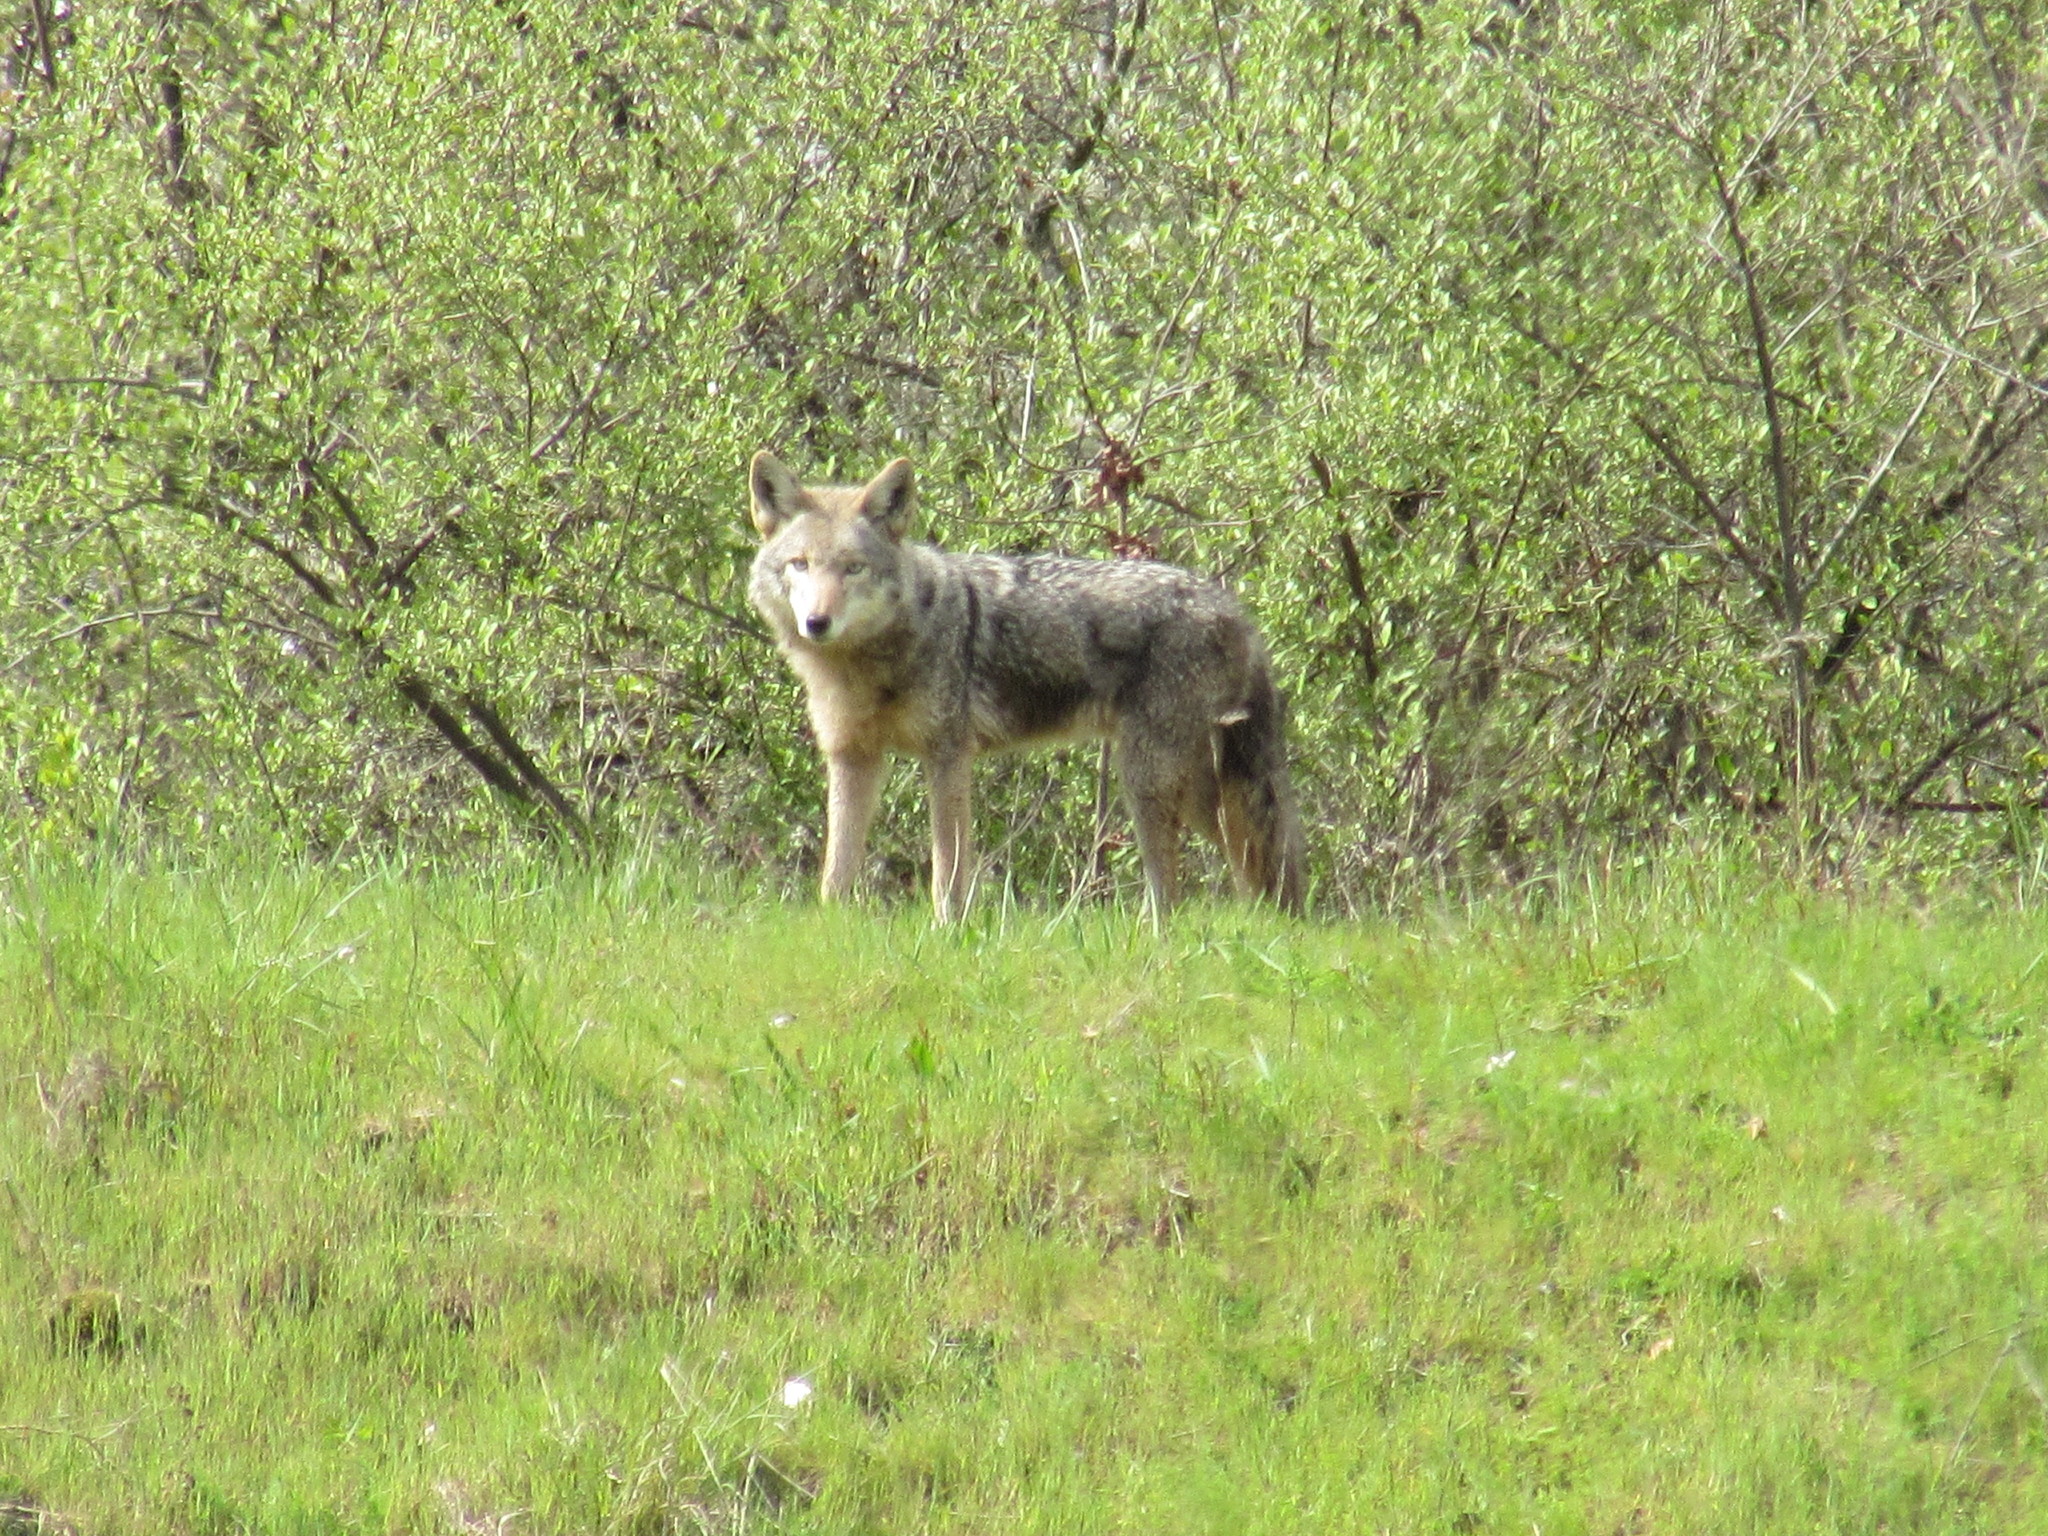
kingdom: Animalia
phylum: Chordata
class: Mammalia
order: Carnivora
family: Canidae
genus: Canis
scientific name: Canis latrans
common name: Coyote
